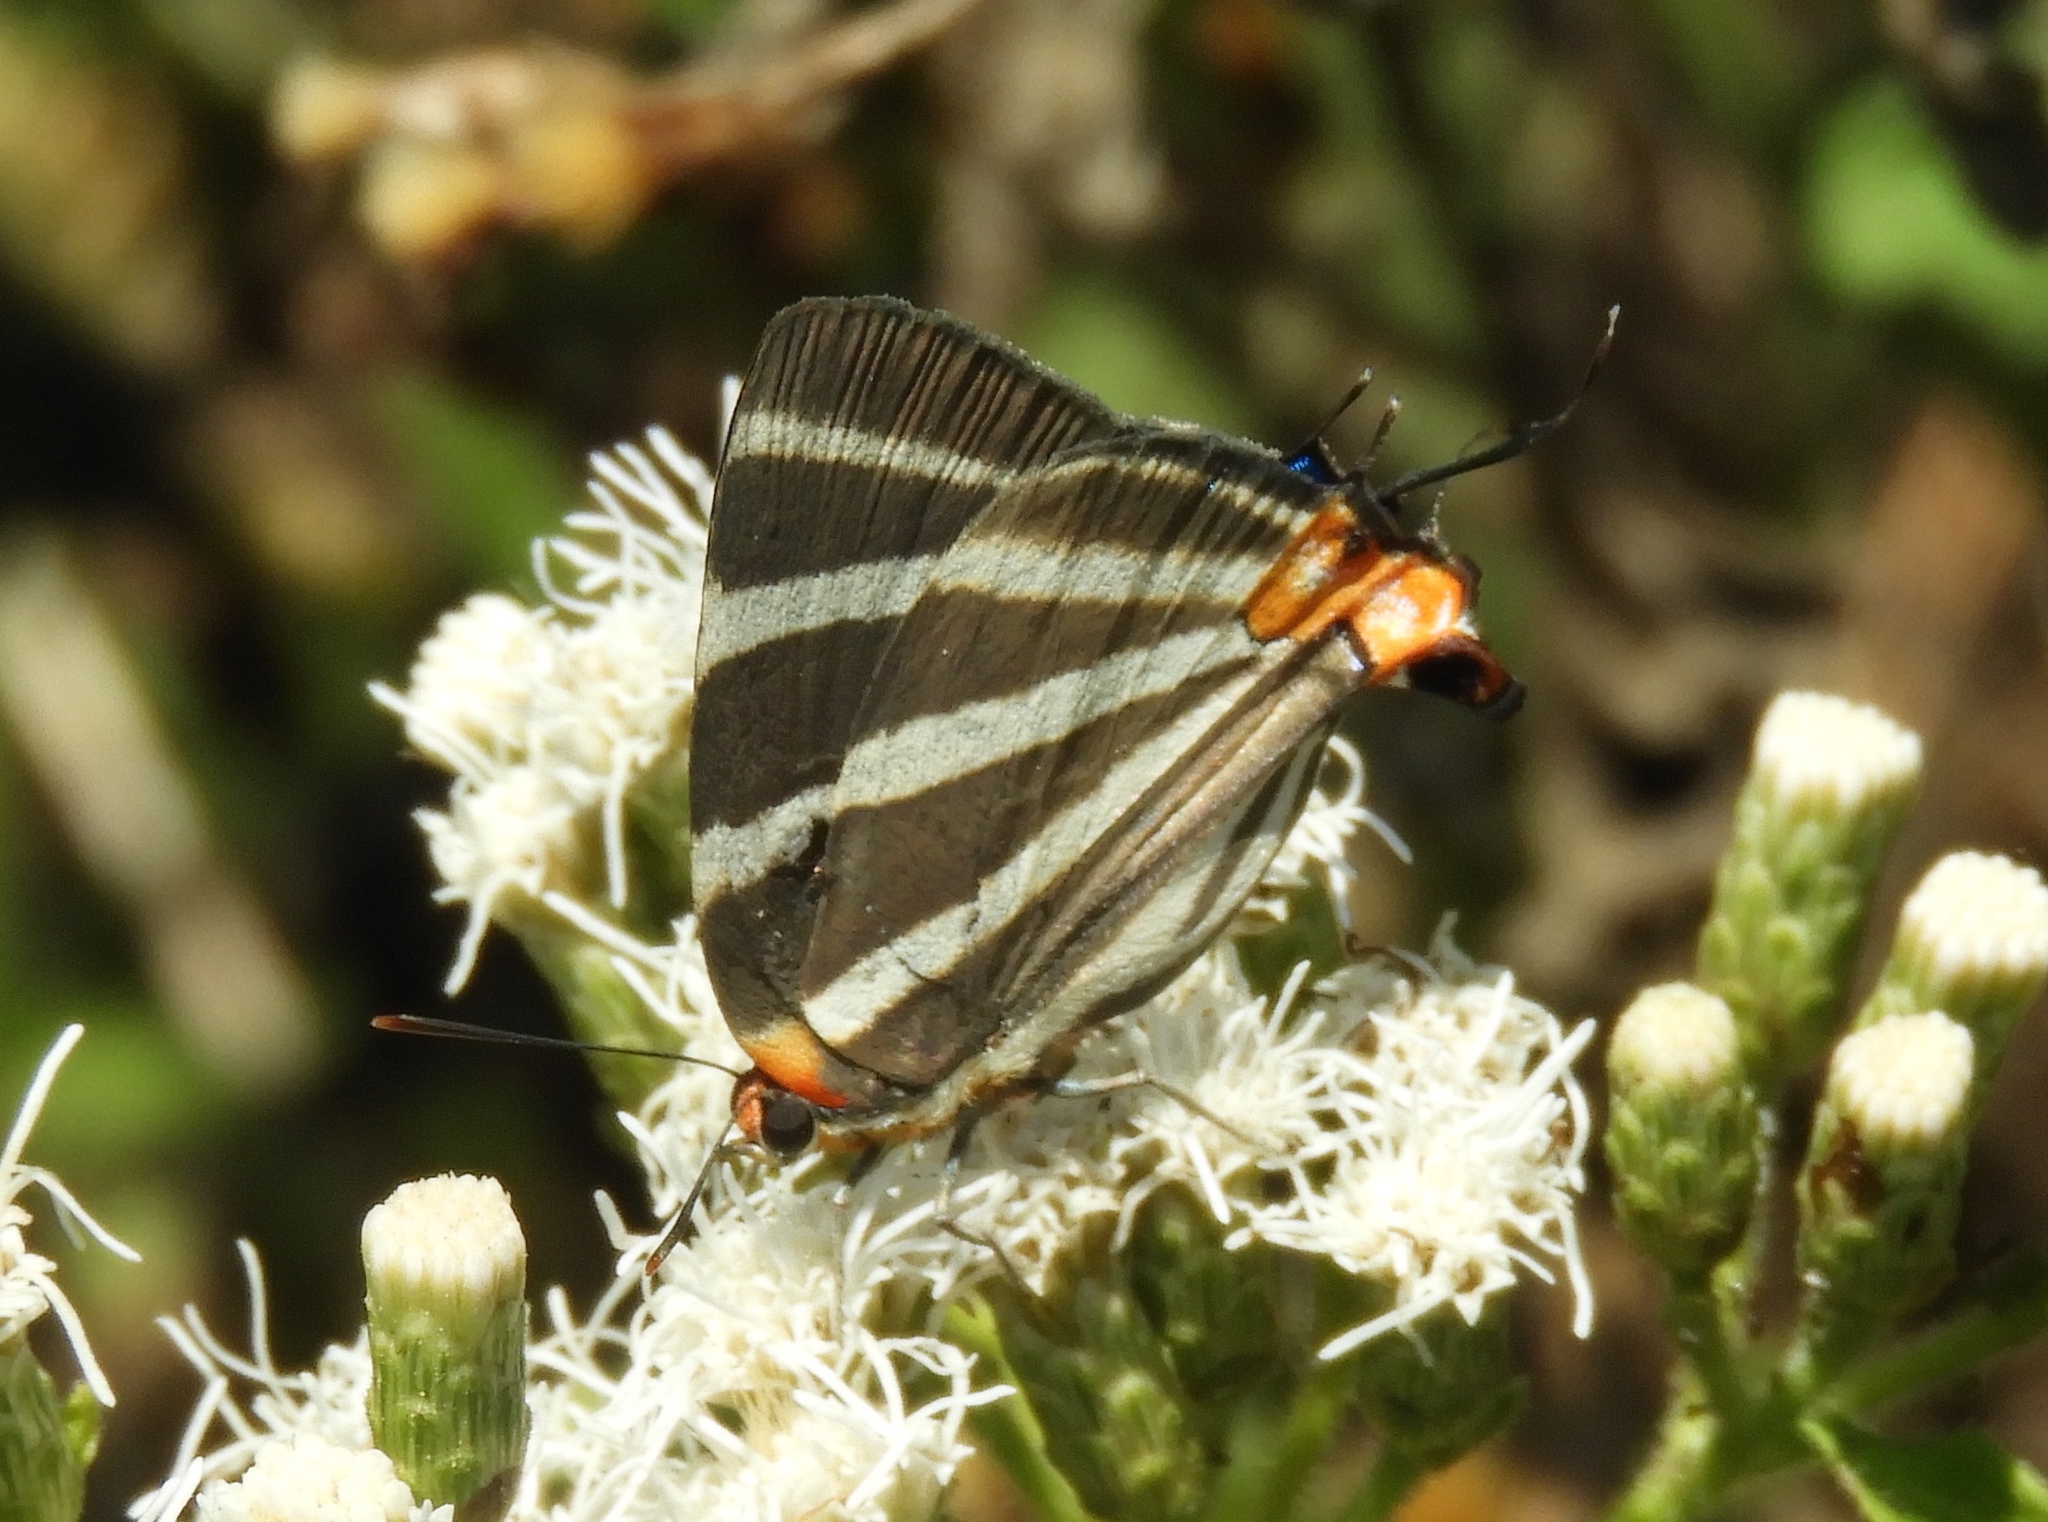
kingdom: Animalia
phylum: Arthropoda
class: Insecta
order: Lepidoptera
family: Lycaenidae
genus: Thecla
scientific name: Thecla bathildis
